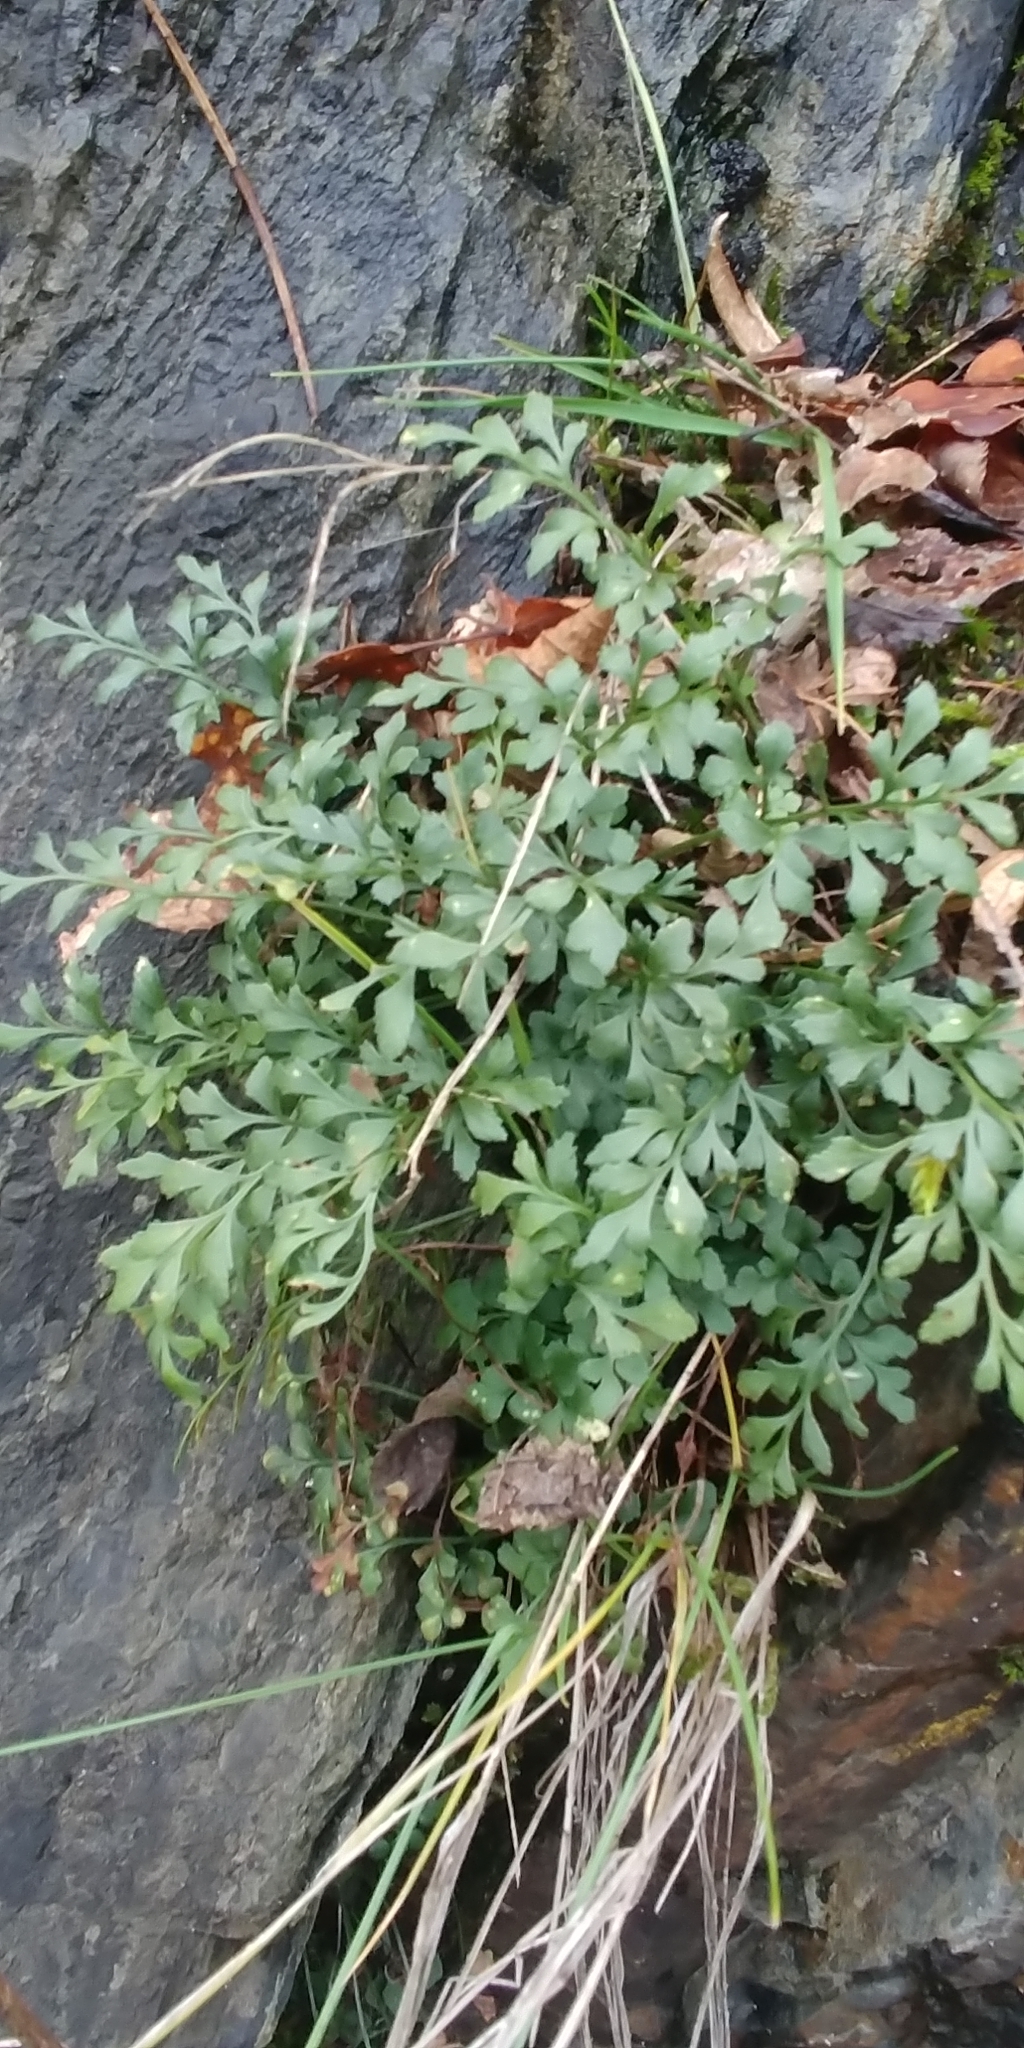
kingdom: Plantae
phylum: Tracheophyta
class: Polypodiopsida
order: Polypodiales
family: Aspleniaceae
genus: Asplenium
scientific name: Asplenium ruta-muraria
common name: Wall-rue
